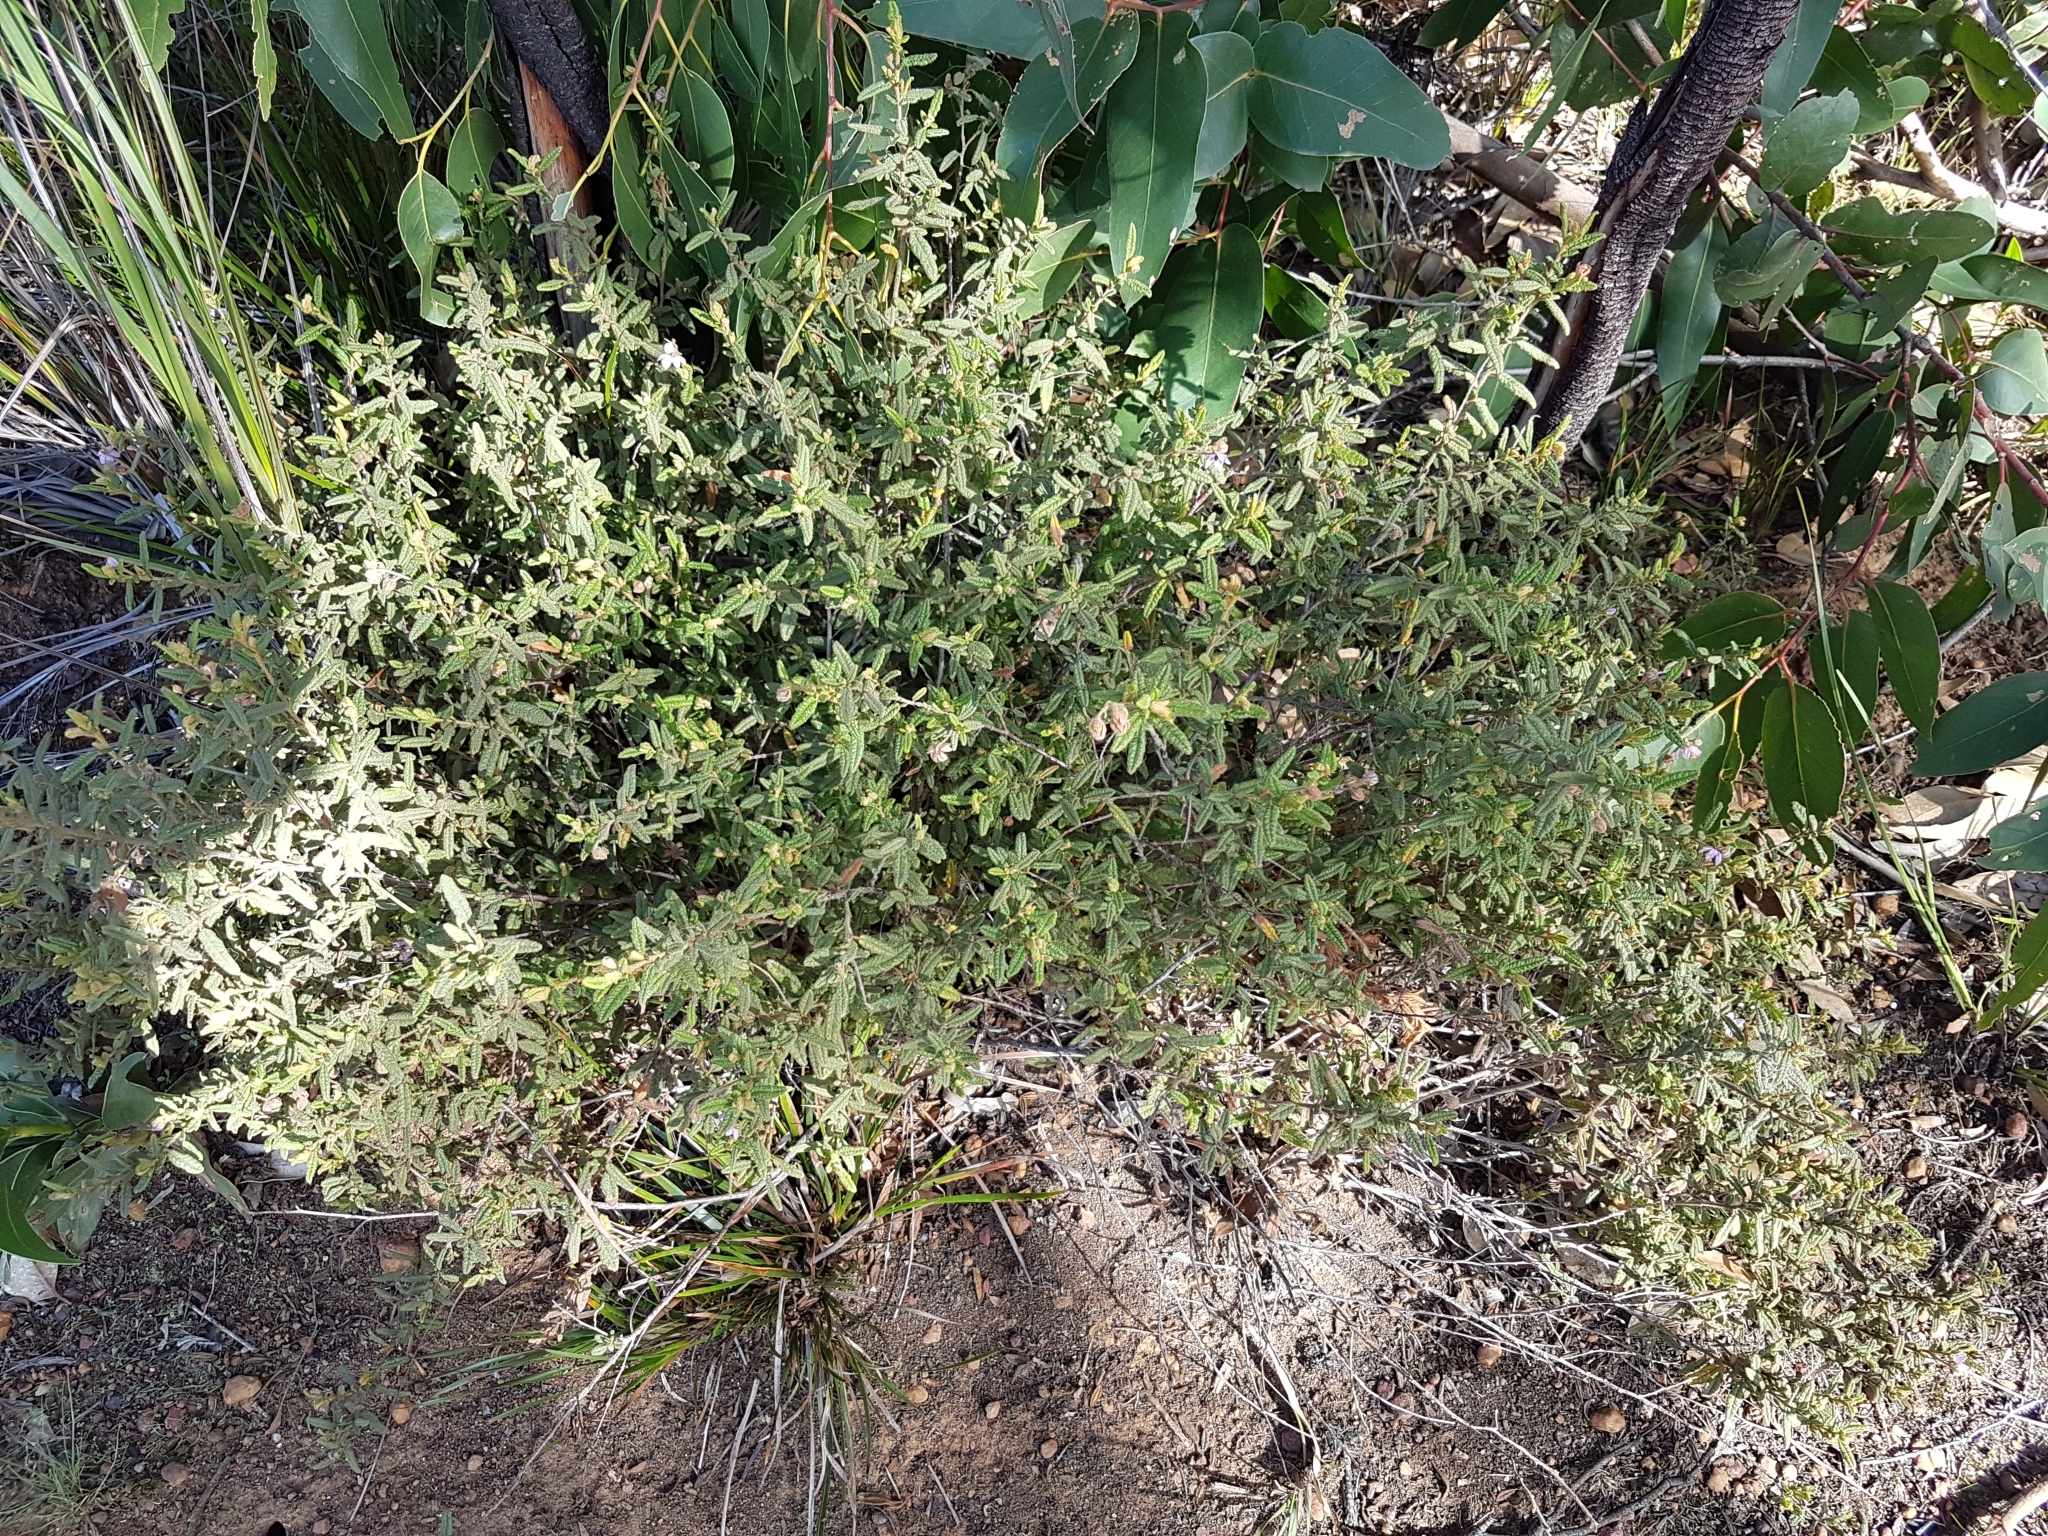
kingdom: Plantae
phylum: Tracheophyta
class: Magnoliopsida
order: Malvales
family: Malvaceae
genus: Thomasia
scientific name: Thomasia petalocalyx
